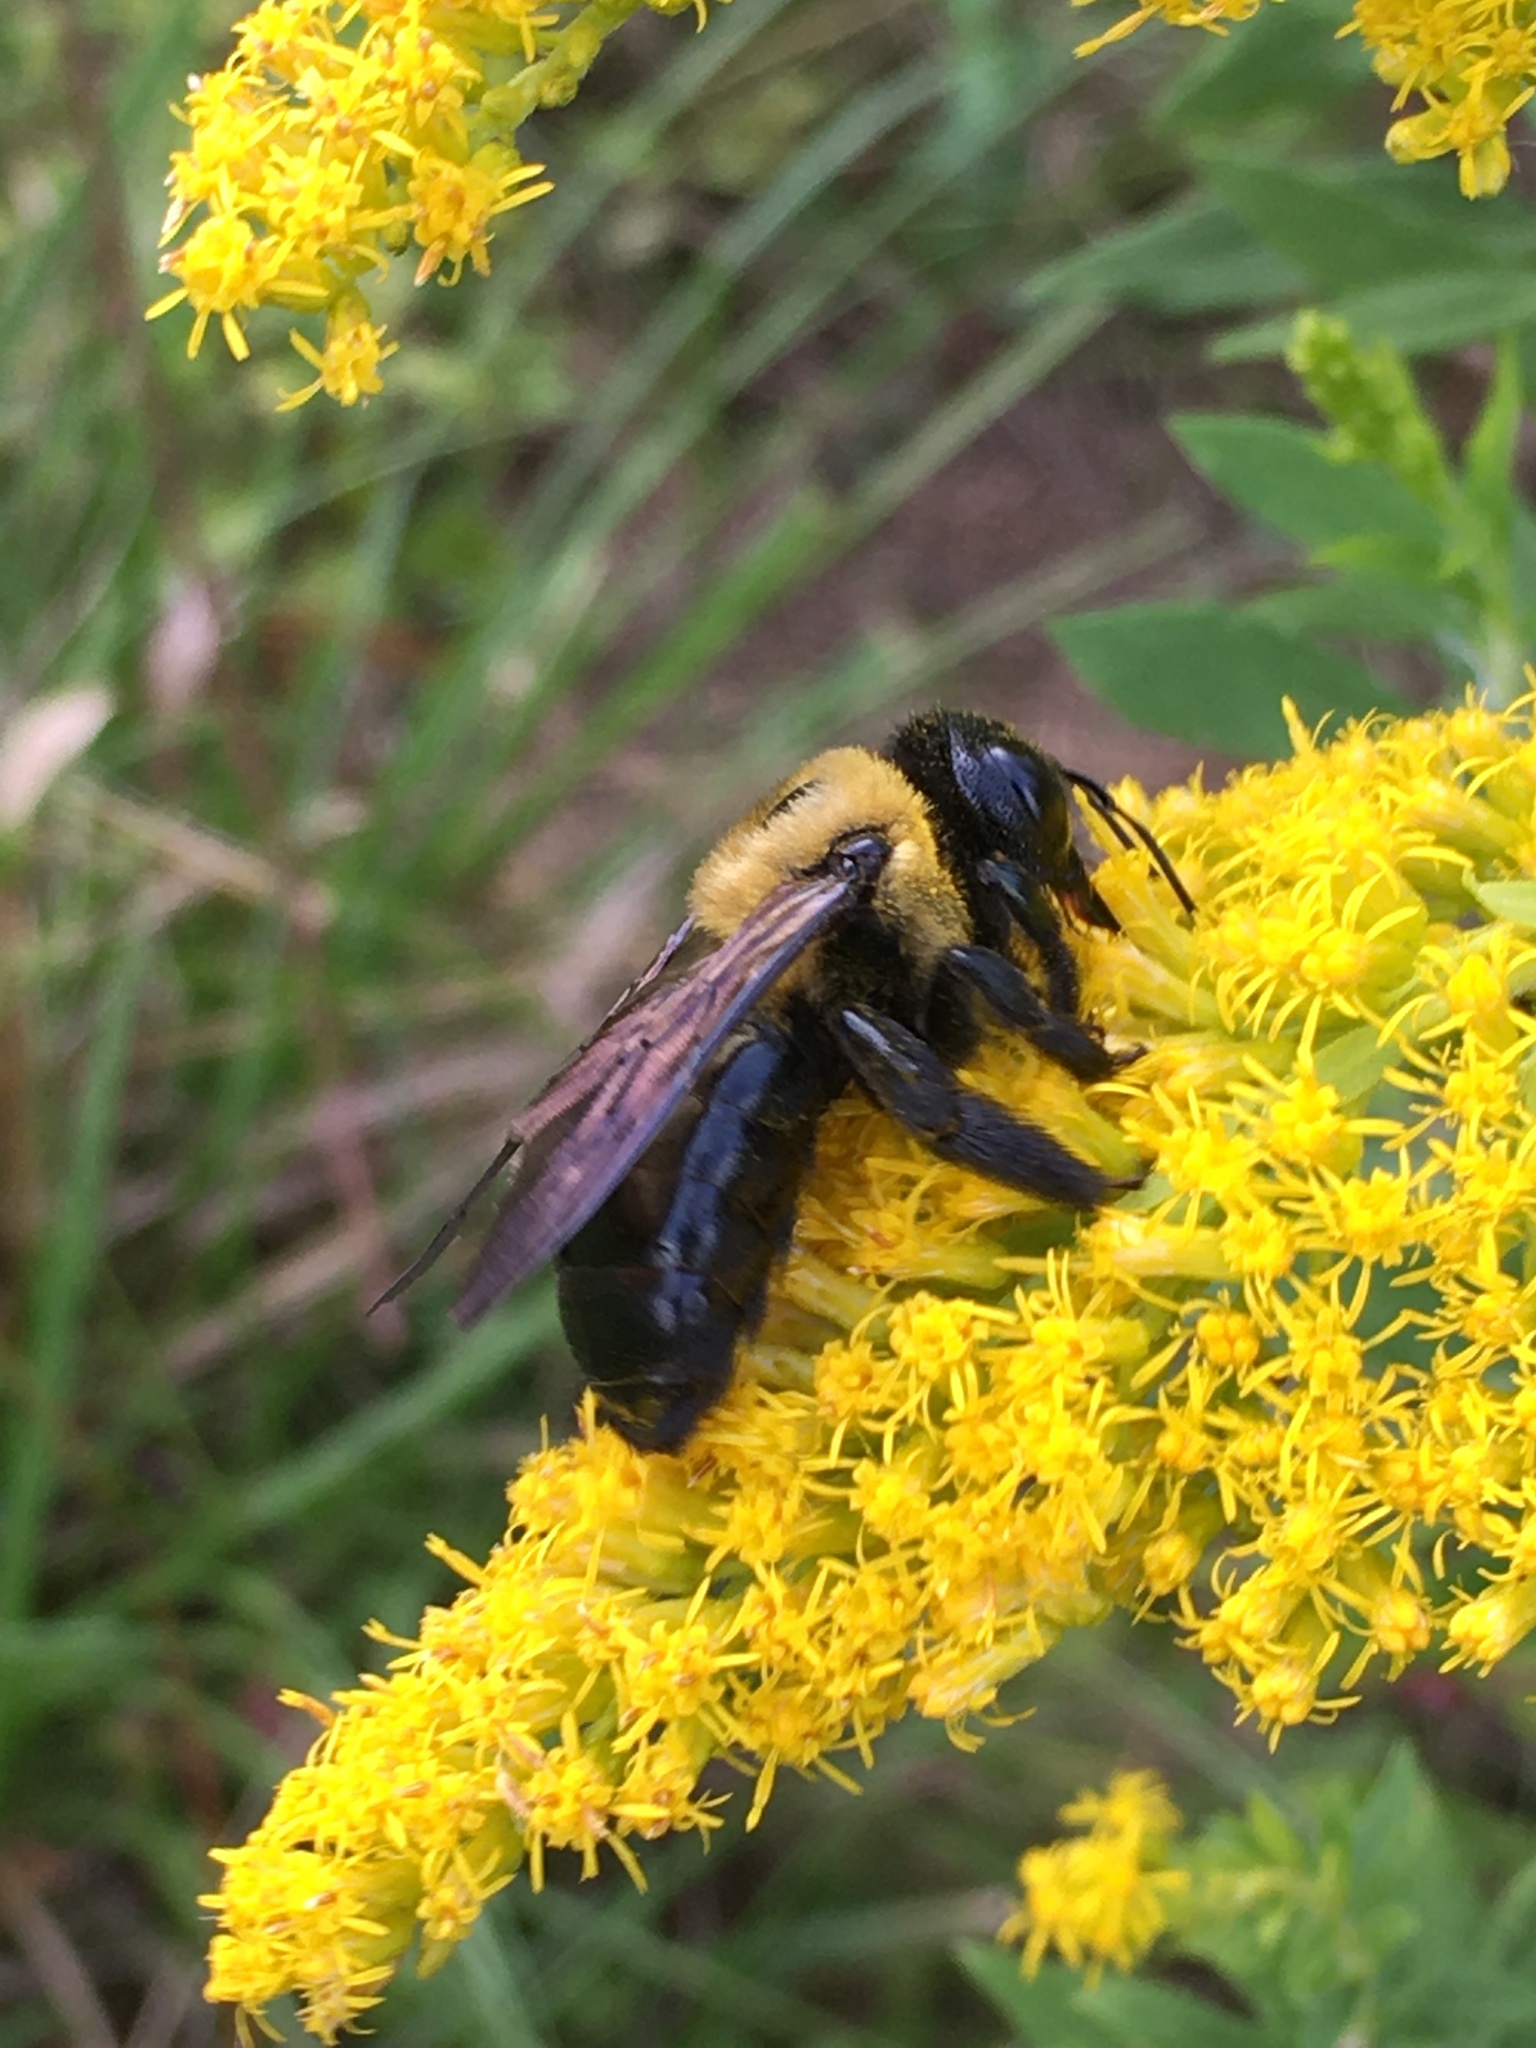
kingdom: Animalia
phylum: Arthropoda
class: Insecta
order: Hymenoptera
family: Apidae
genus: Xylocopa
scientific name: Xylocopa virginica
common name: Carpenter bee
